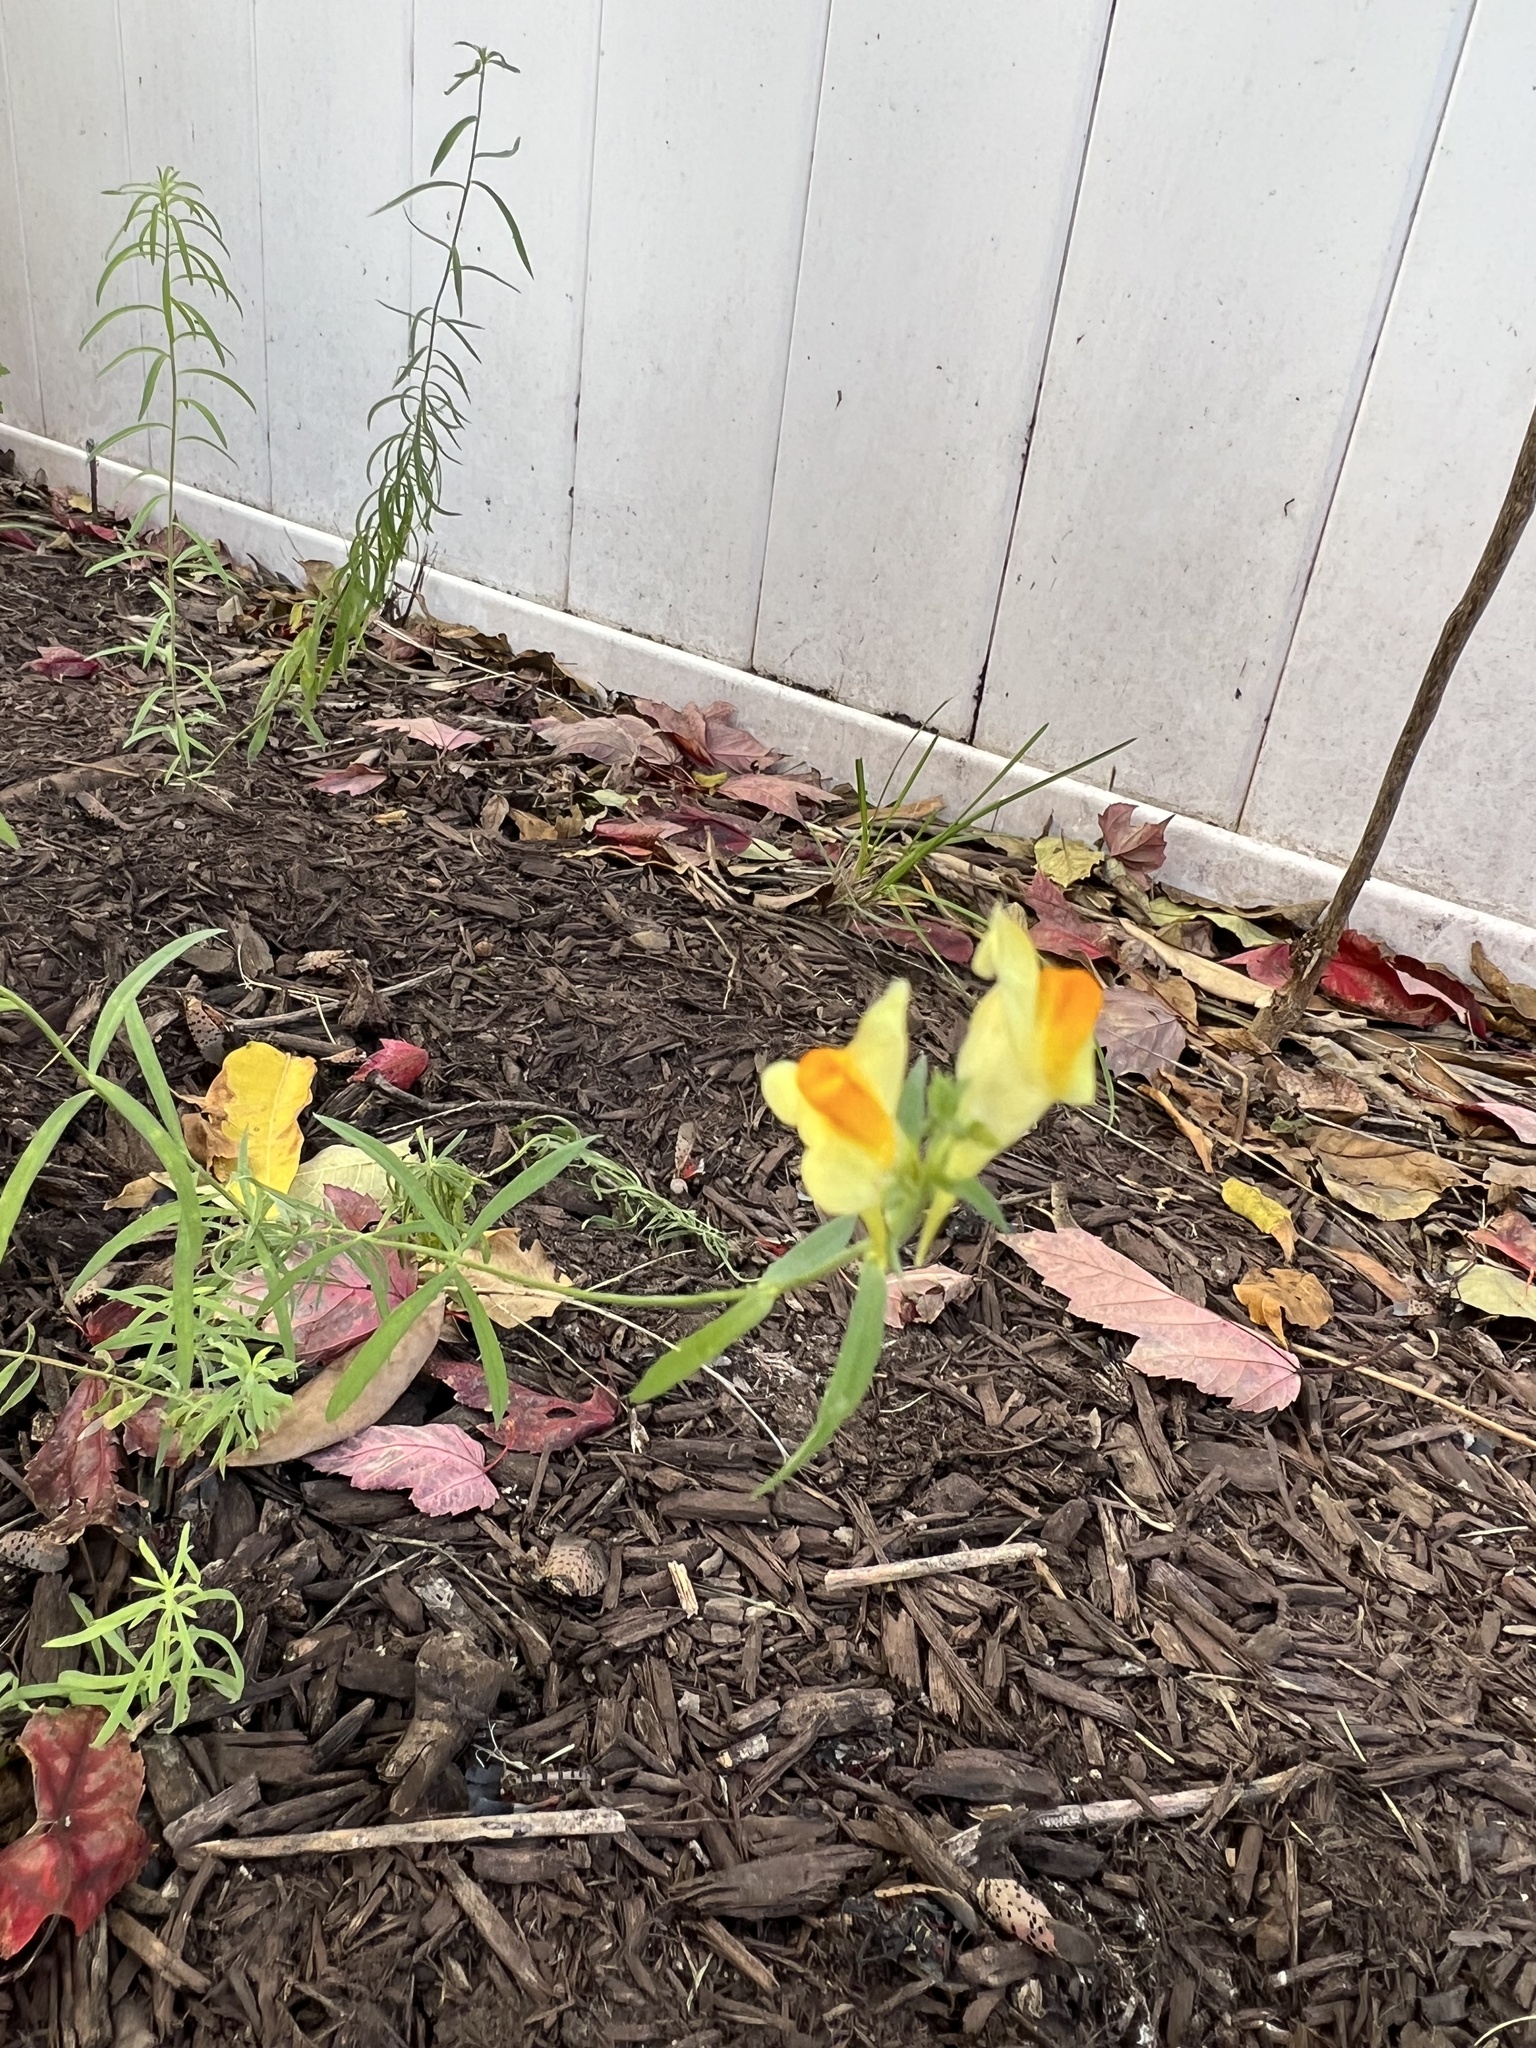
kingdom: Plantae
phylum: Tracheophyta
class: Magnoliopsida
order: Lamiales
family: Plantaginaceae
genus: Linaria
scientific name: Linaria vulgaris
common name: Butter and eggs
